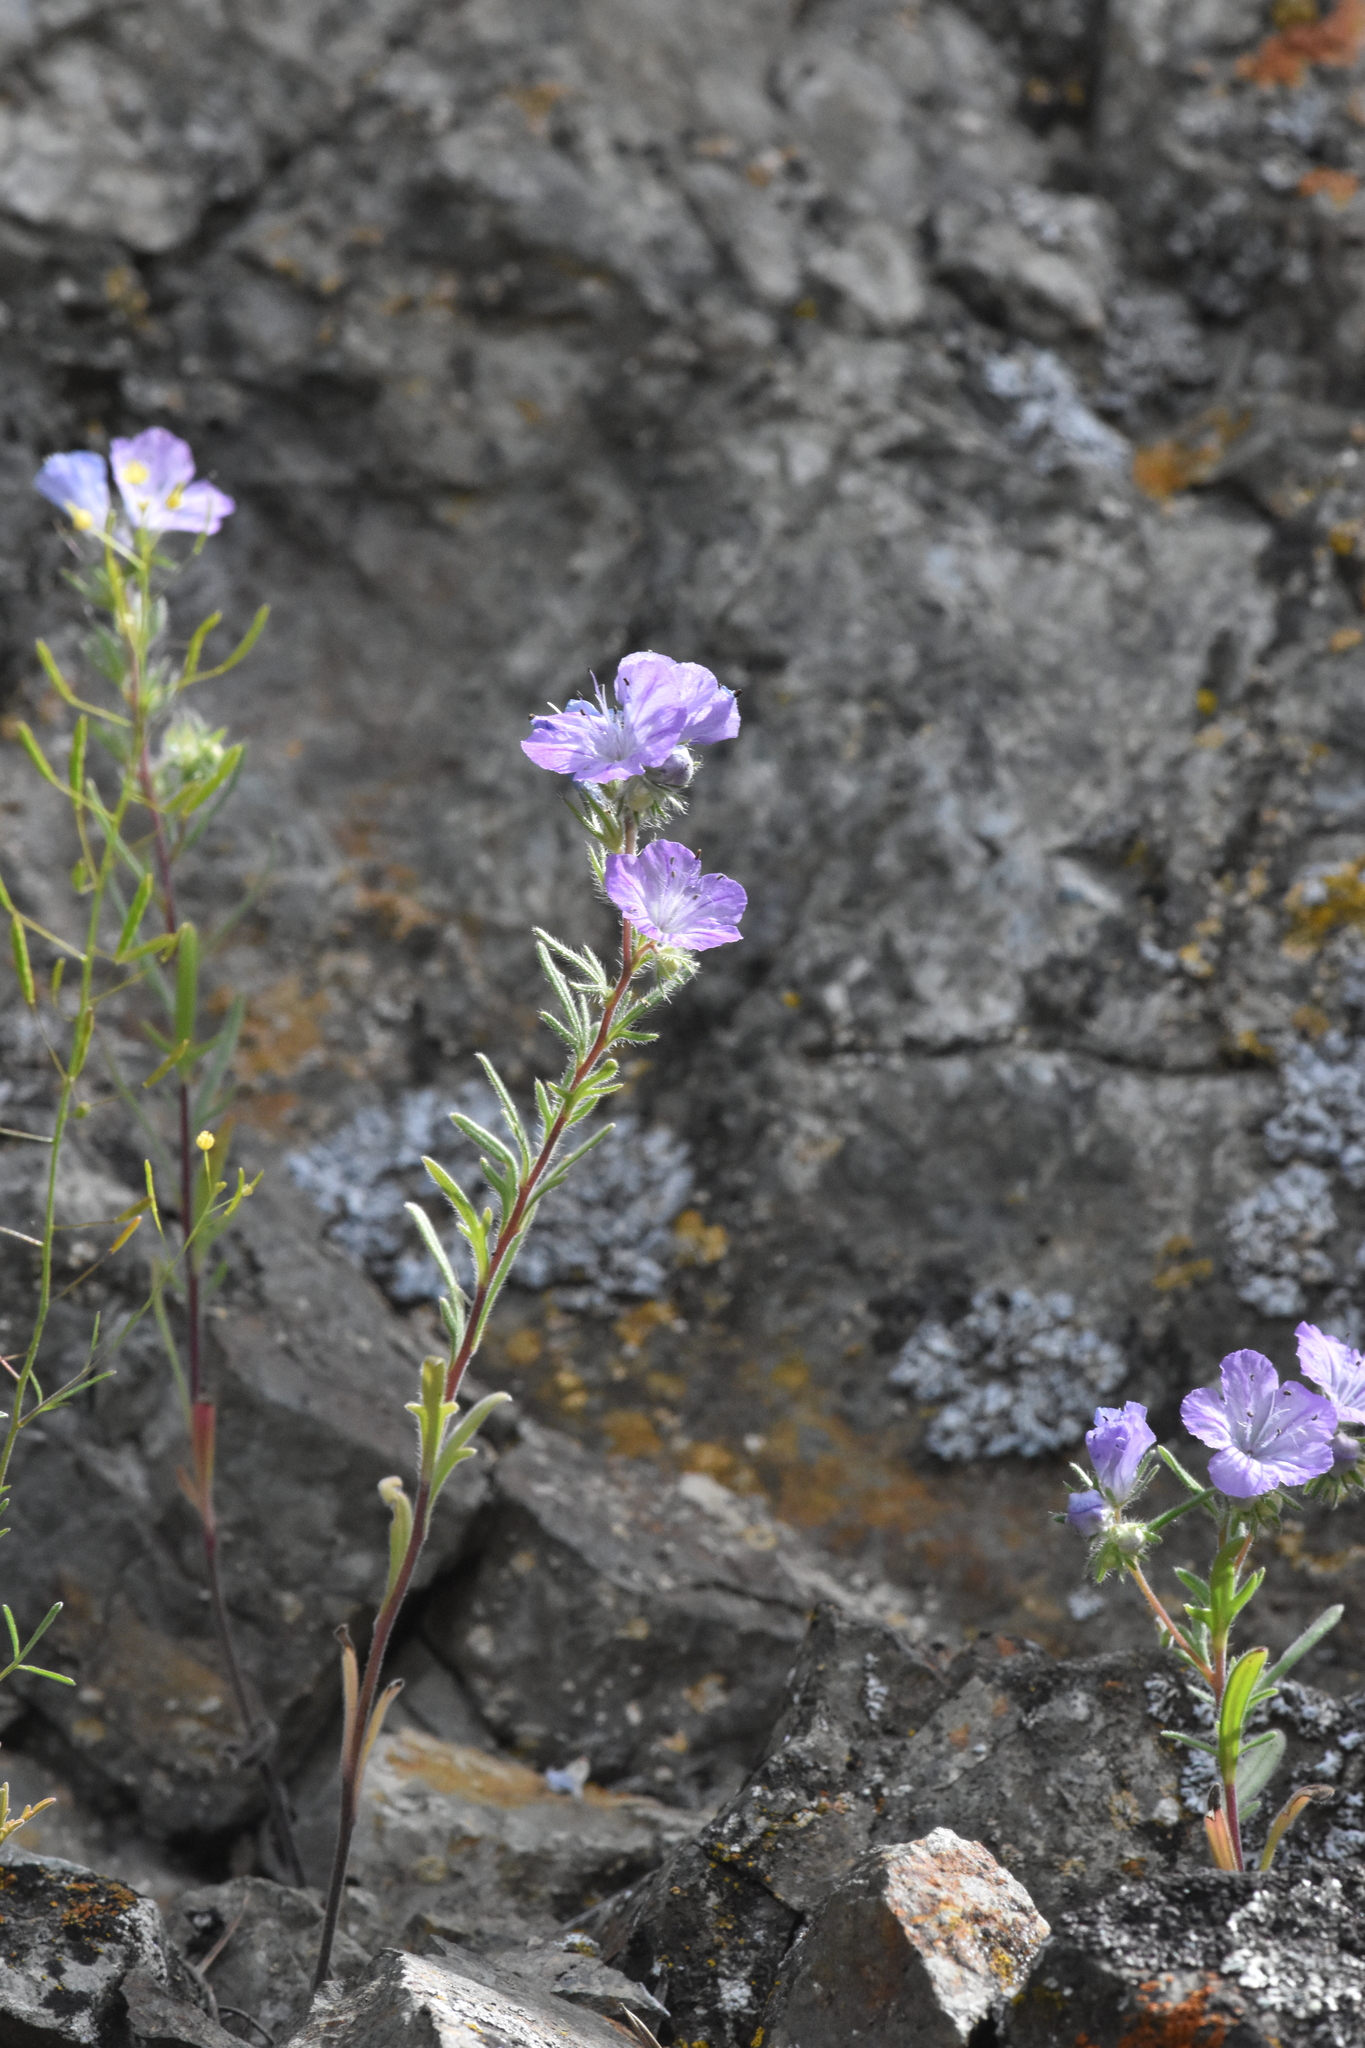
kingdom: Plantae
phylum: Tracheophyta
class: Magnoliopsida
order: Boraginales
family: Hydrophyllaceae
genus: Phacelia
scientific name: Phacelia linearis
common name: Linear-leaved phacelia
